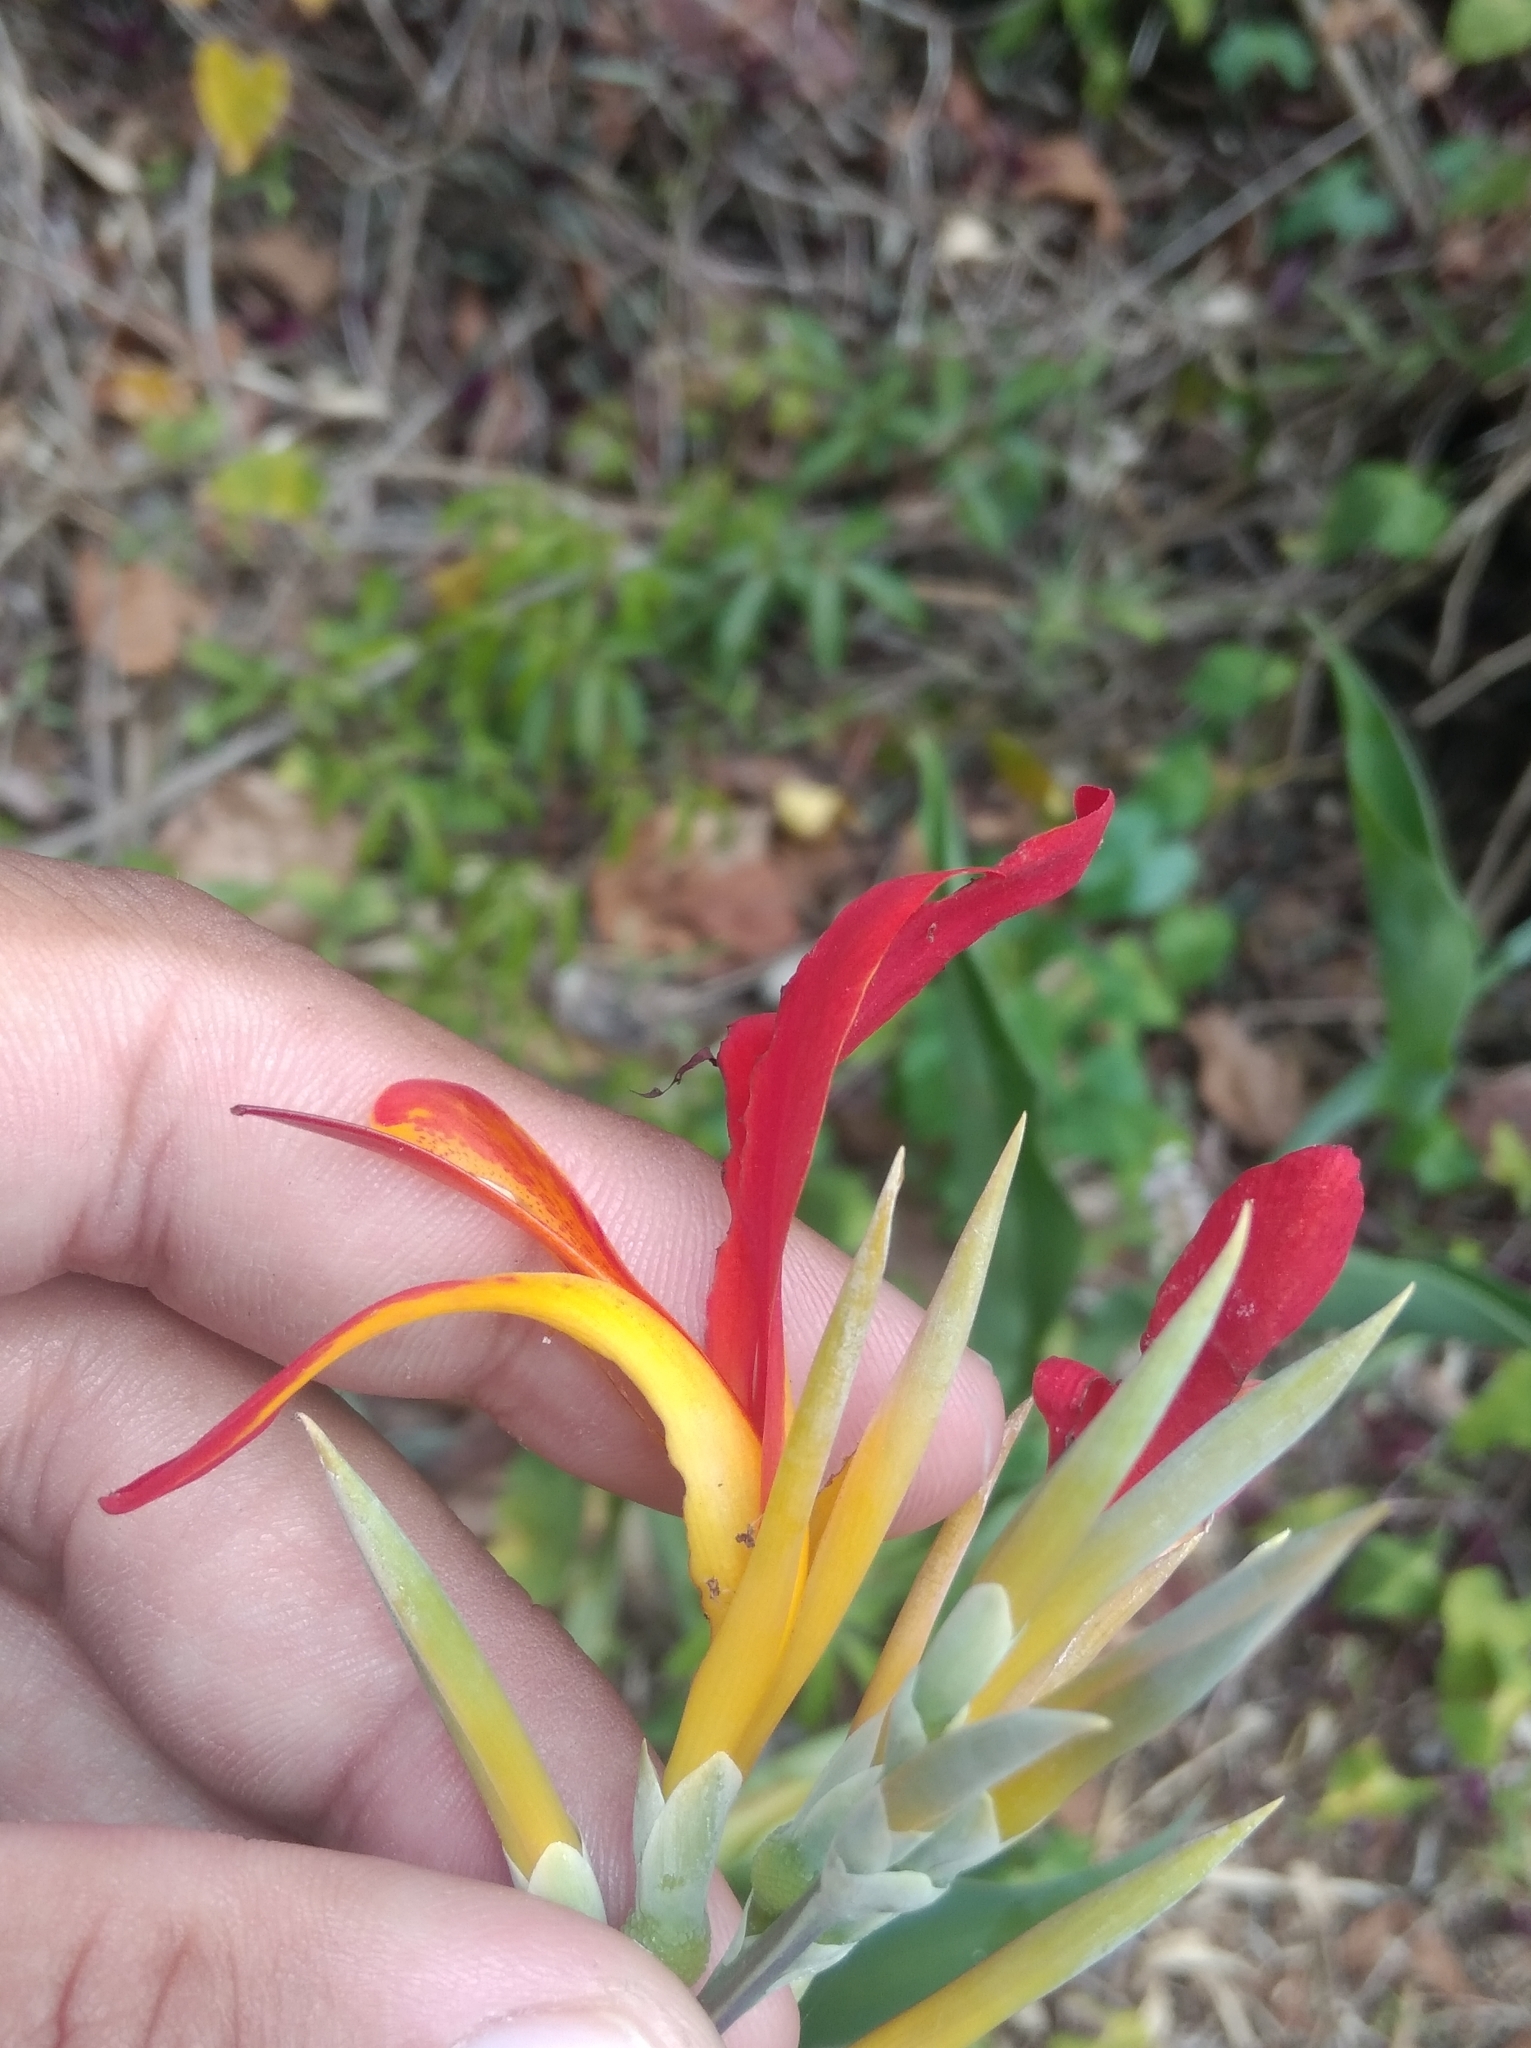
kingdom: Plantae
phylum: Tracheophyta
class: Liliopsida
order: Zingiberales
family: Cannaceae
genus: Canna
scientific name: Canna indica
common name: Indian shot
